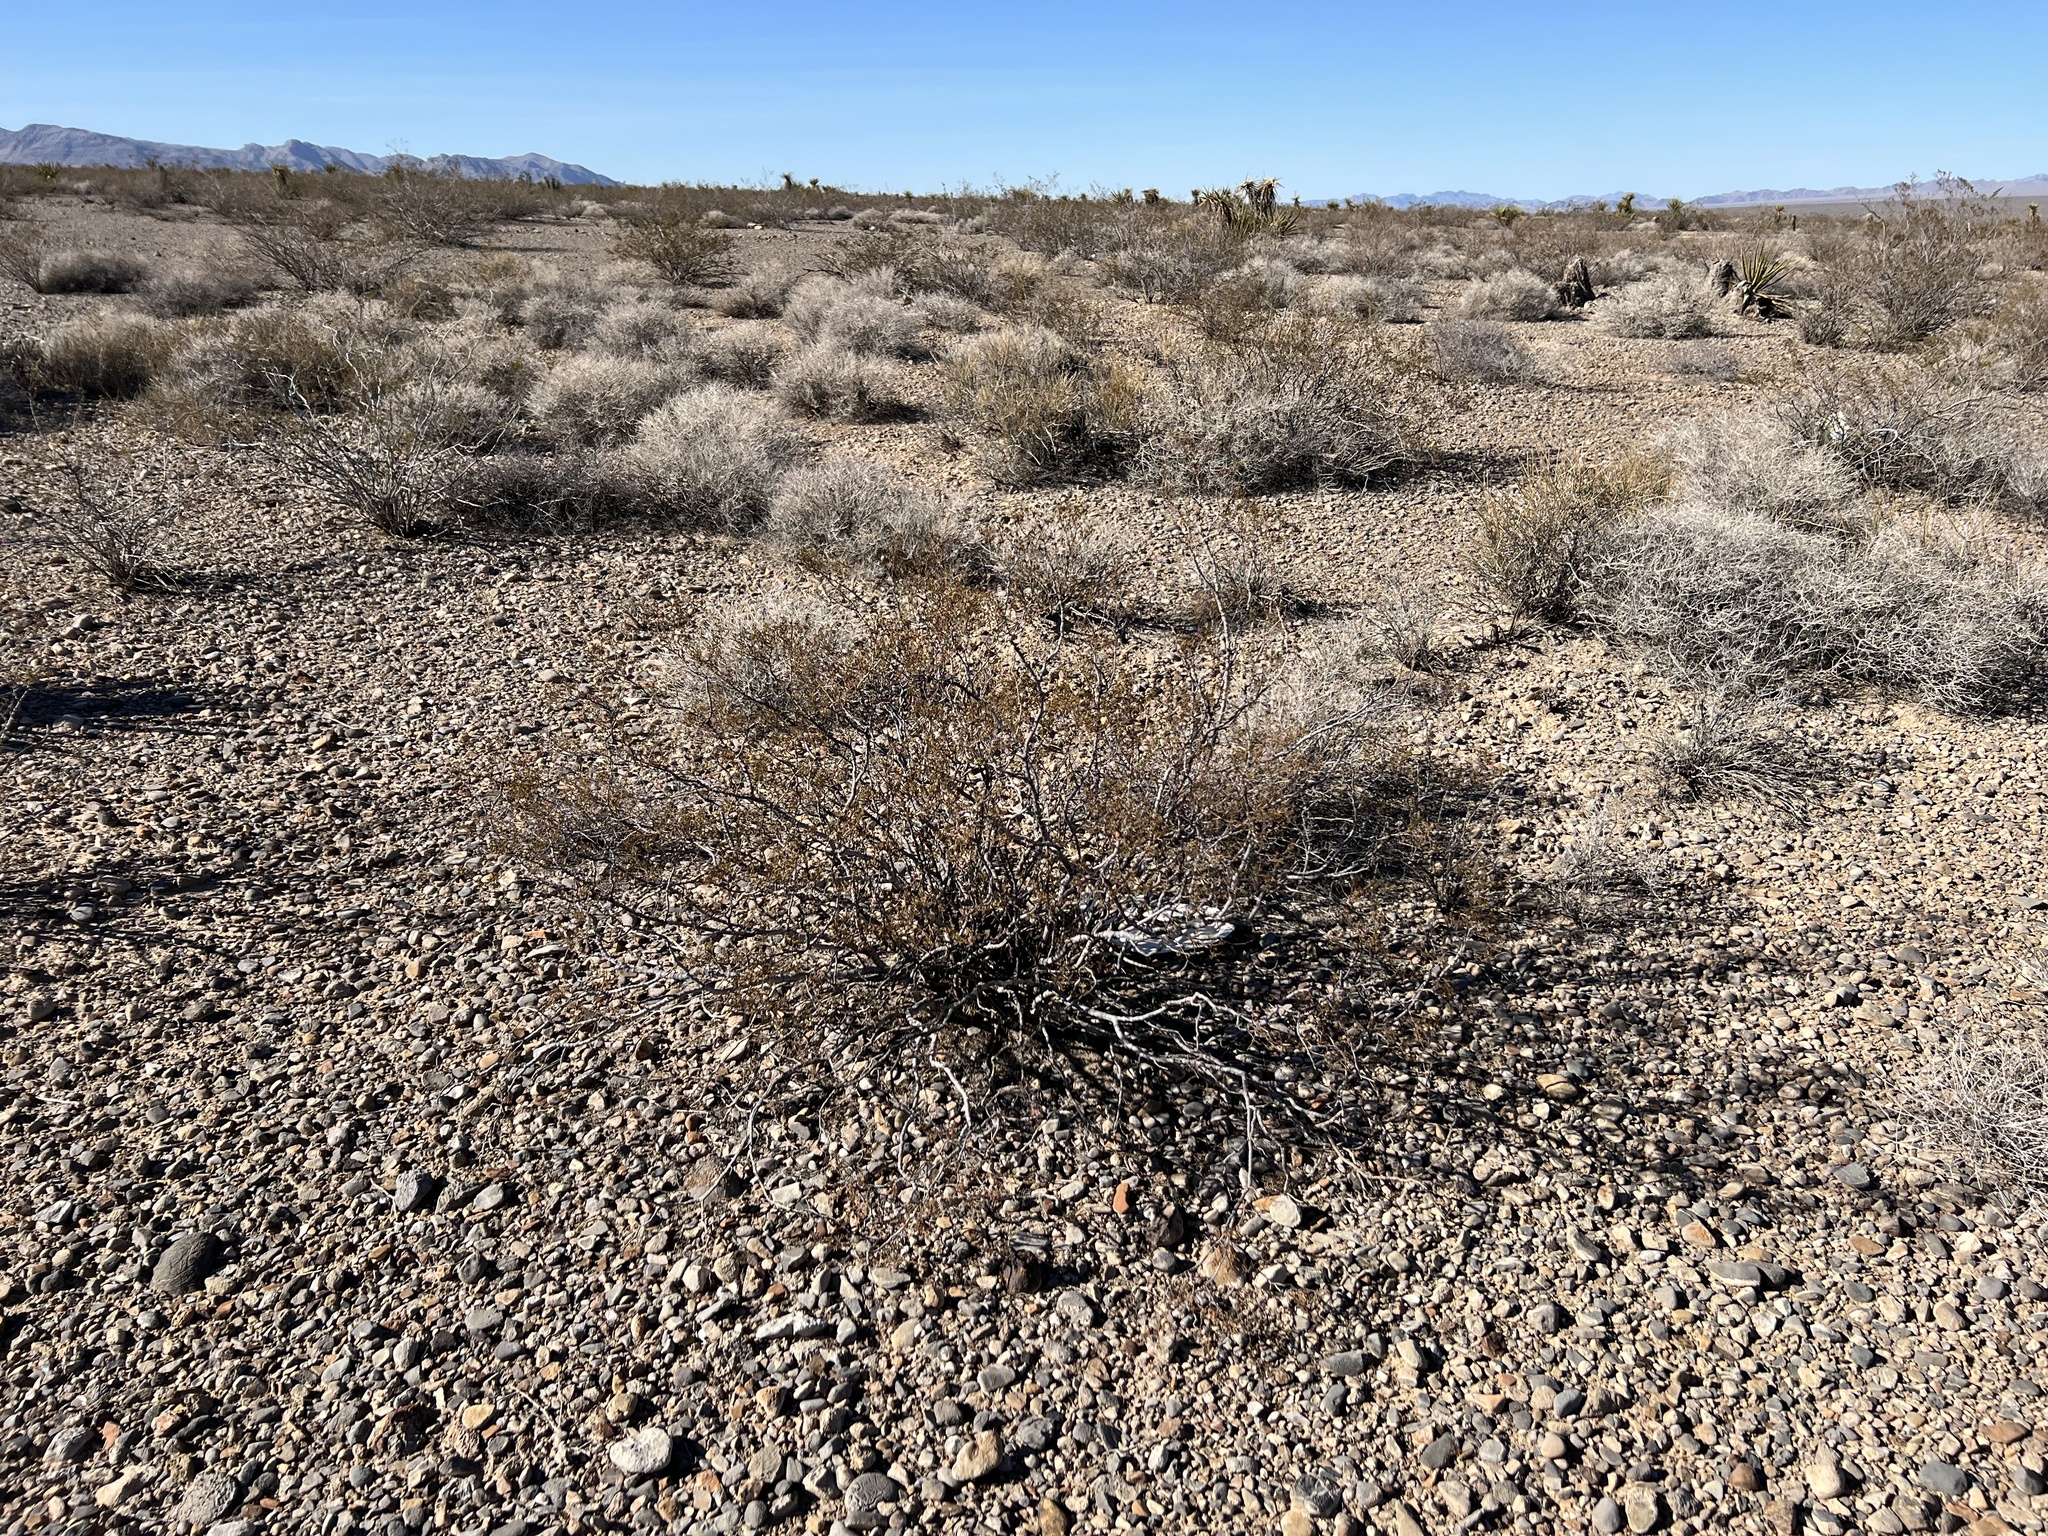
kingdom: Plantae
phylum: Tracheophyta
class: Magnoliopsida
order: Zygophyllales
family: Zygophyllaceae
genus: Larrea
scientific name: Larrea tridentata
